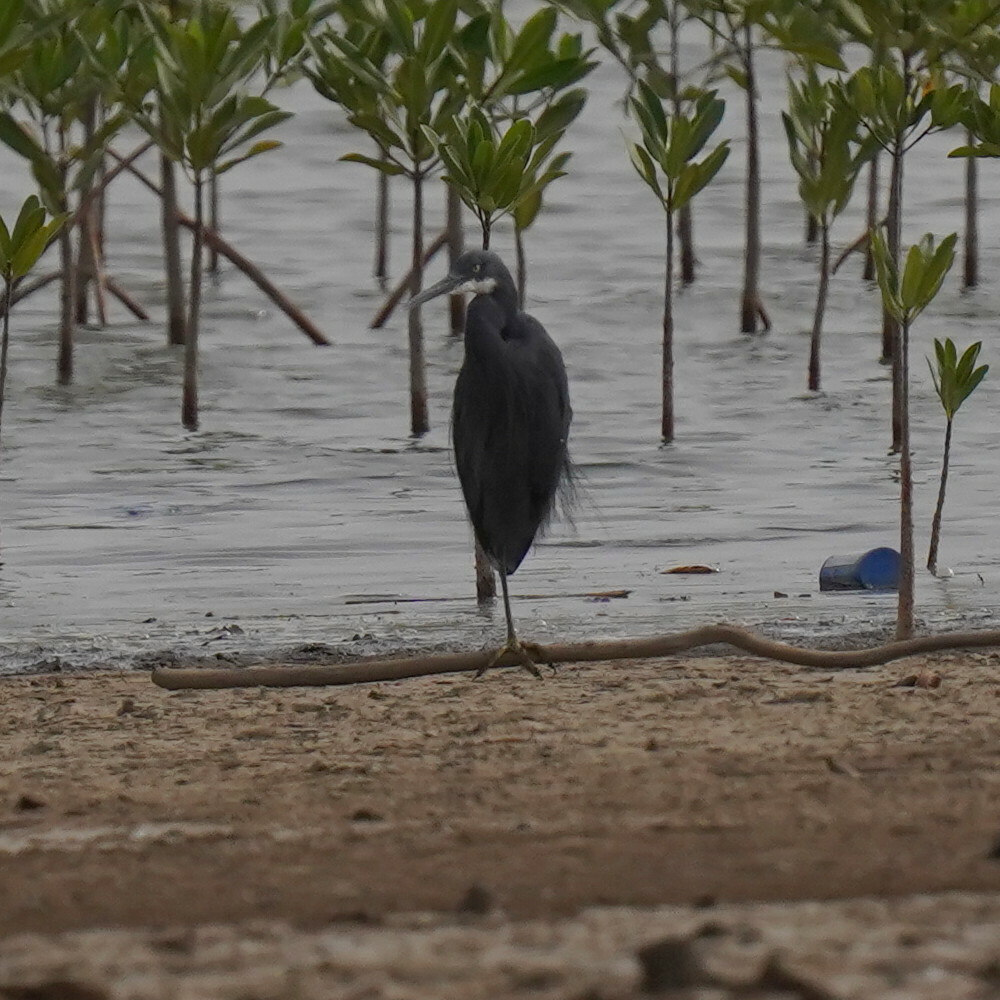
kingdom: Animalia
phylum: Chordata
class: Aves
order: Pelecaniformes
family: Ardeidae
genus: Egretta
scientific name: Egretta gularis
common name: Western reef-heron
